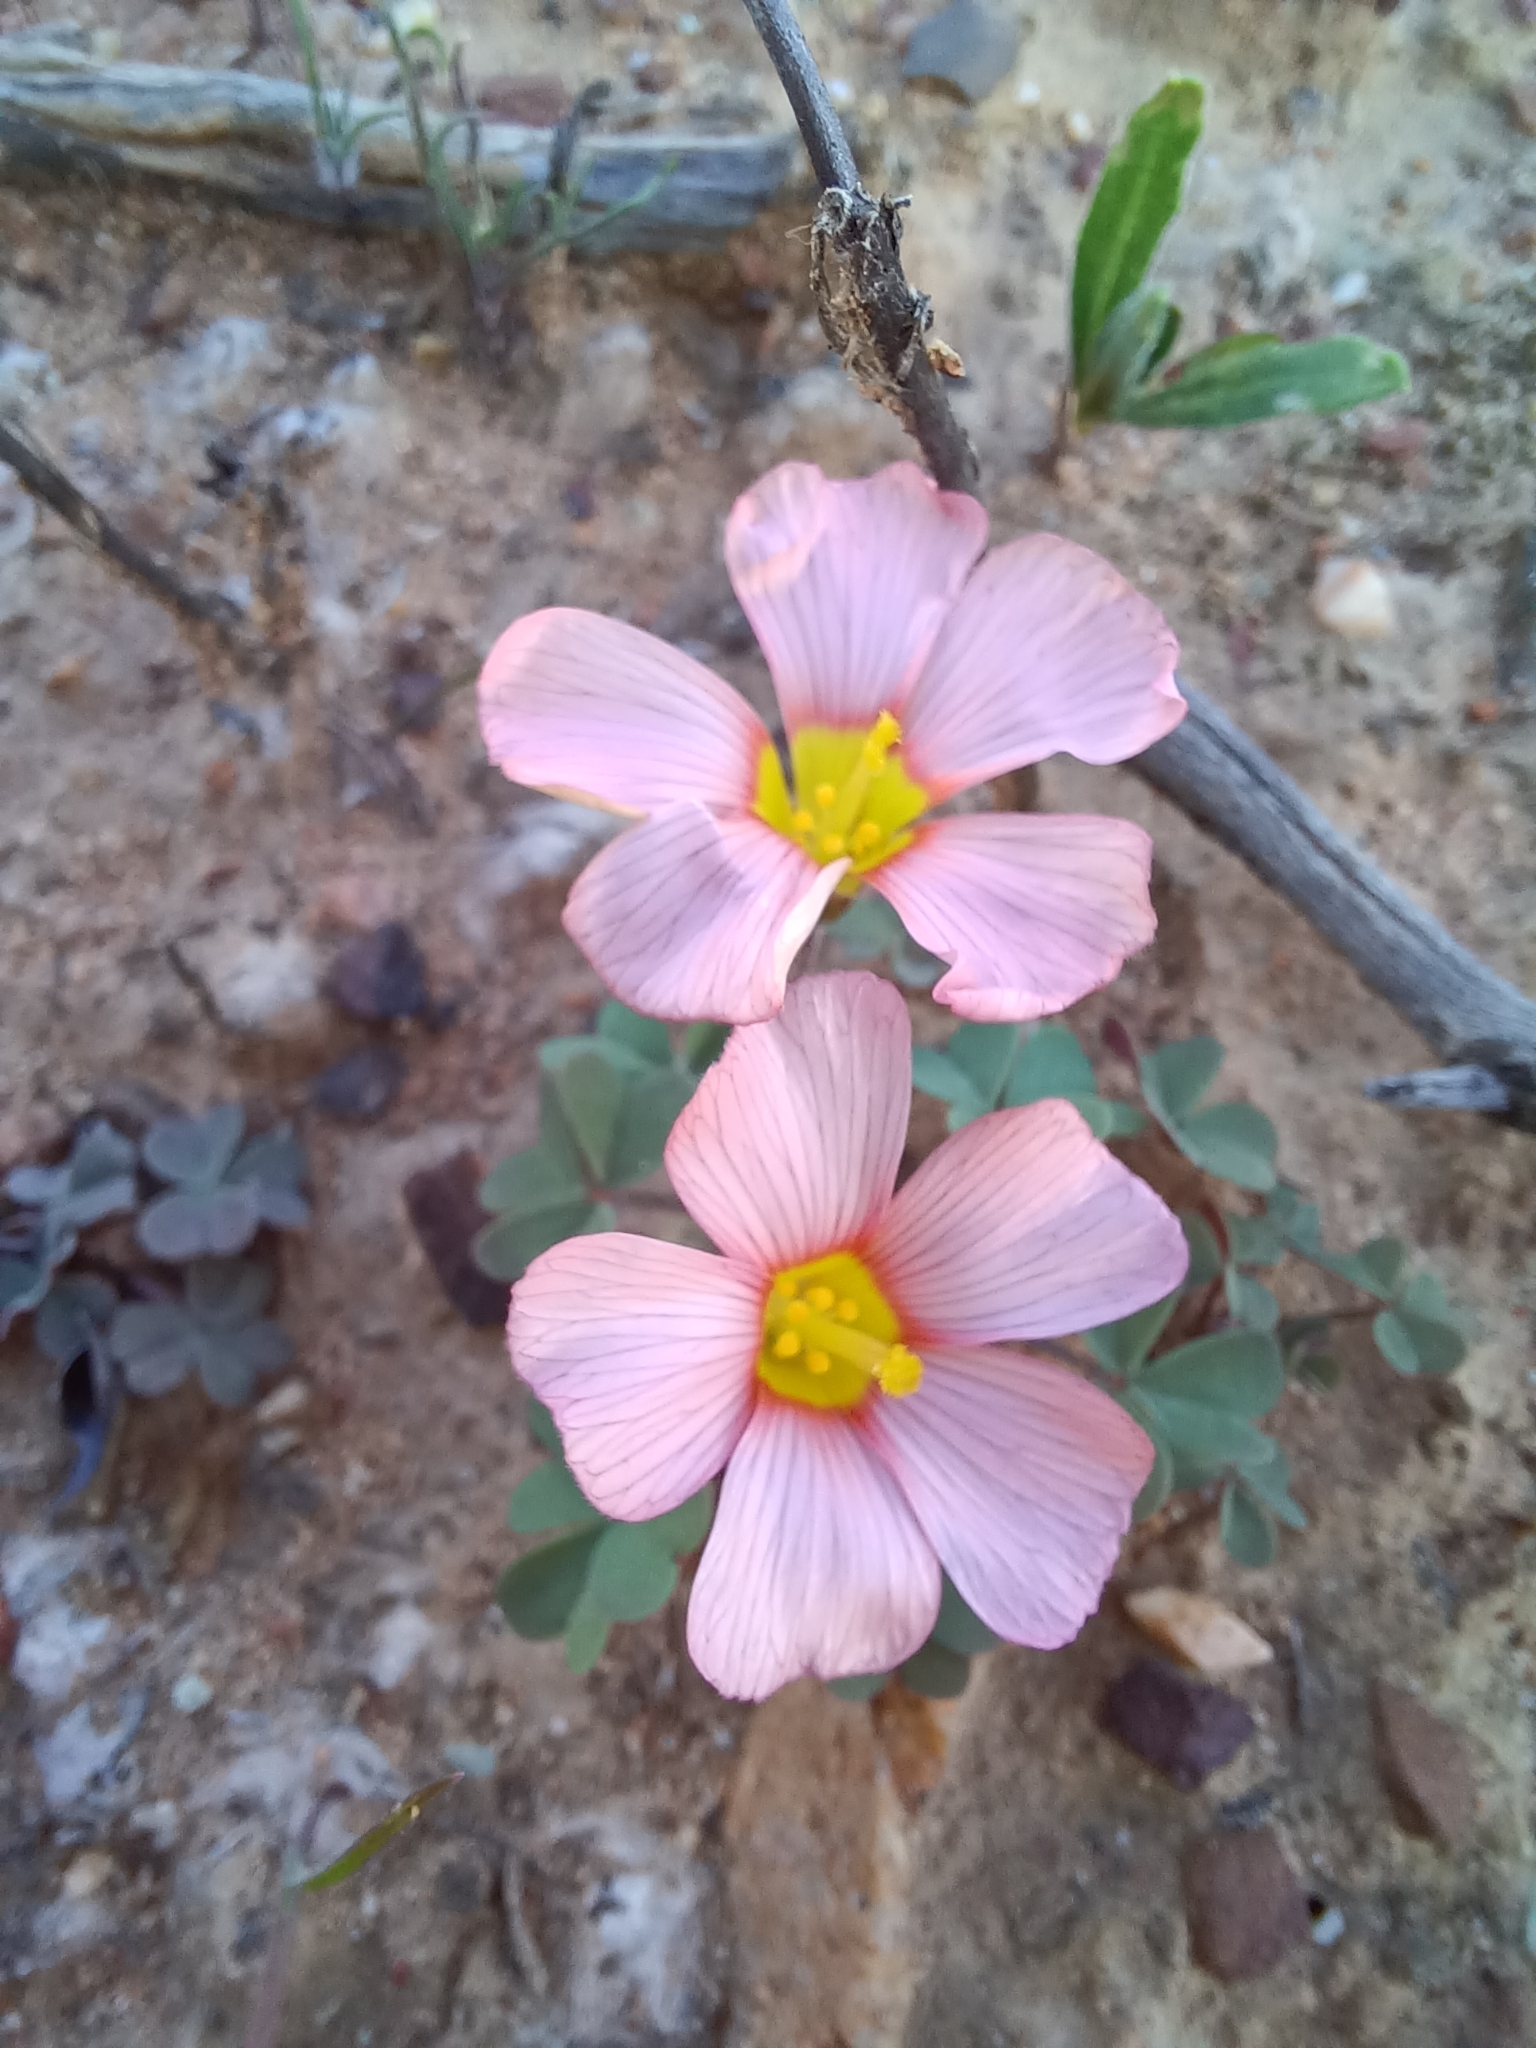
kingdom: Plantae
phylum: Tracheophyta
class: Magnoliopsida
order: Oxalidales
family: Oxalidaceae
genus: Oxalis
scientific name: Oxalis obtusa
